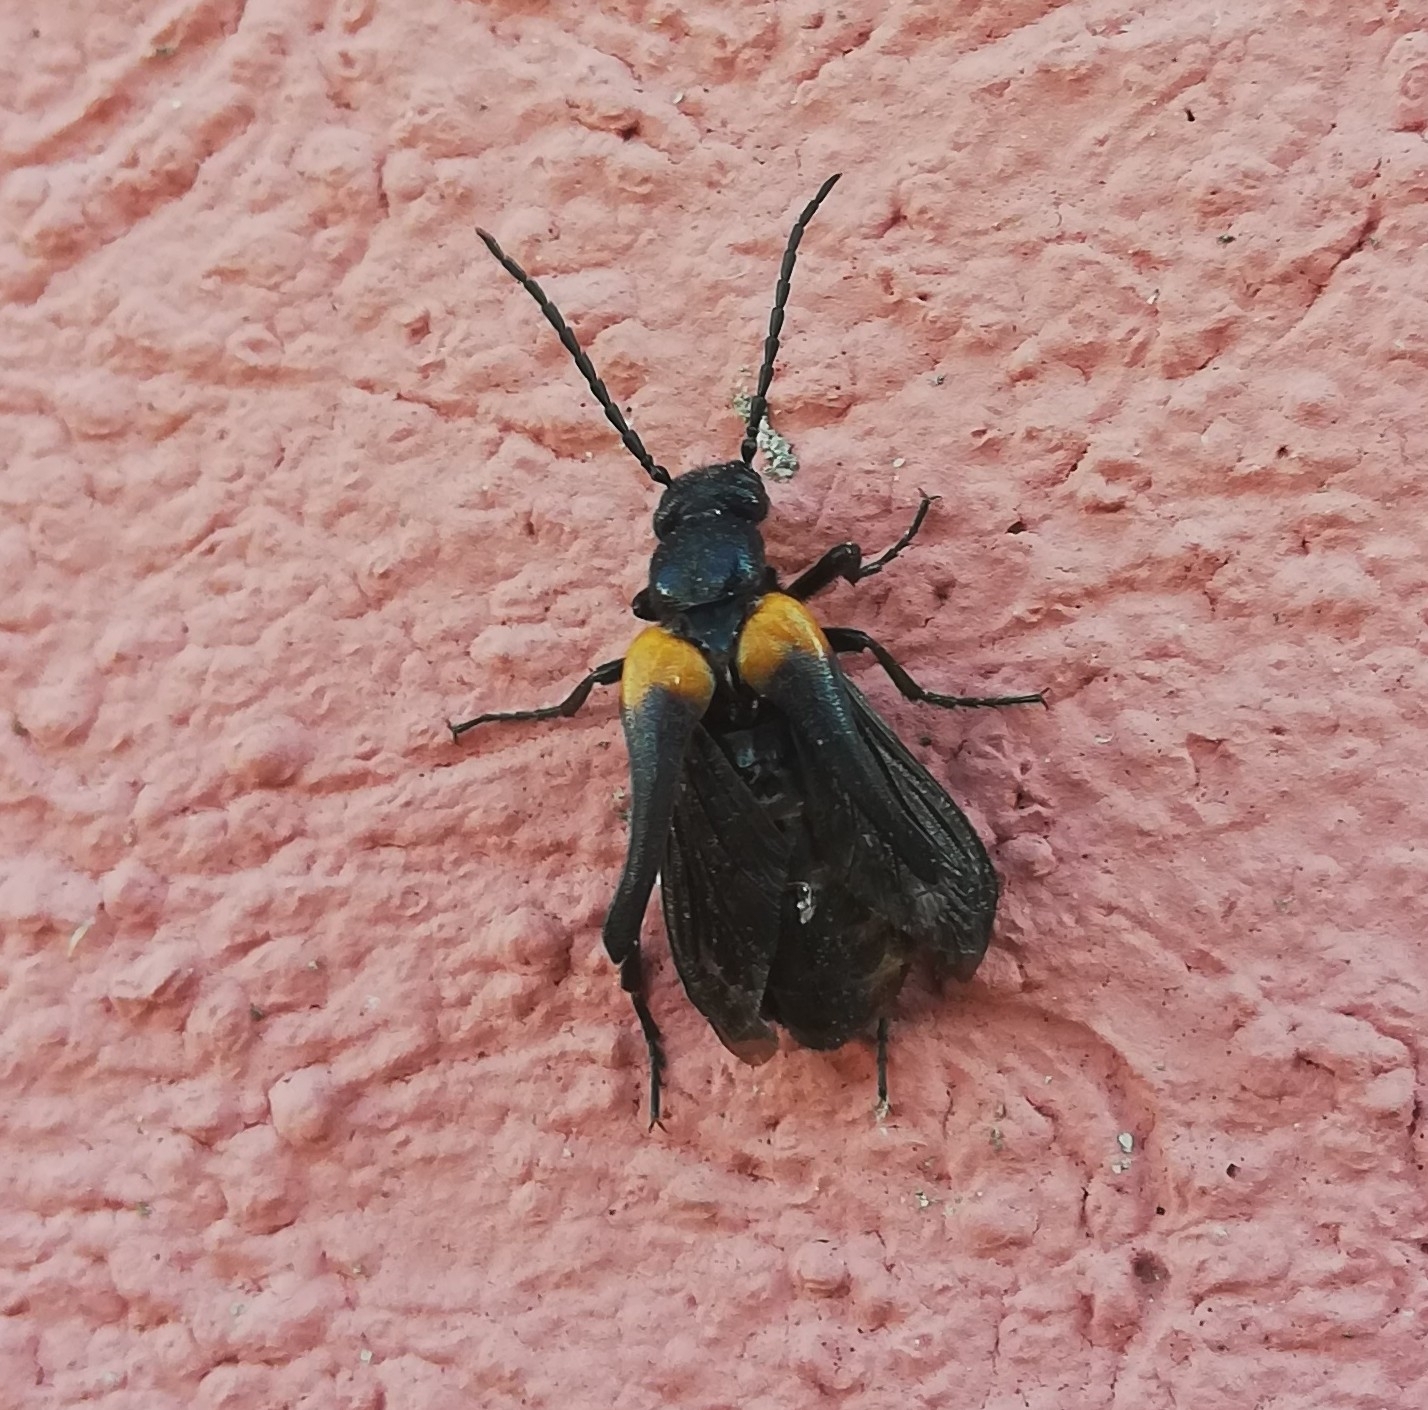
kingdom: Animalia
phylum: Arthropoda
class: Insecta
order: Coleoptera
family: Meloidae
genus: Sitaris
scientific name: Sitaris muralis
